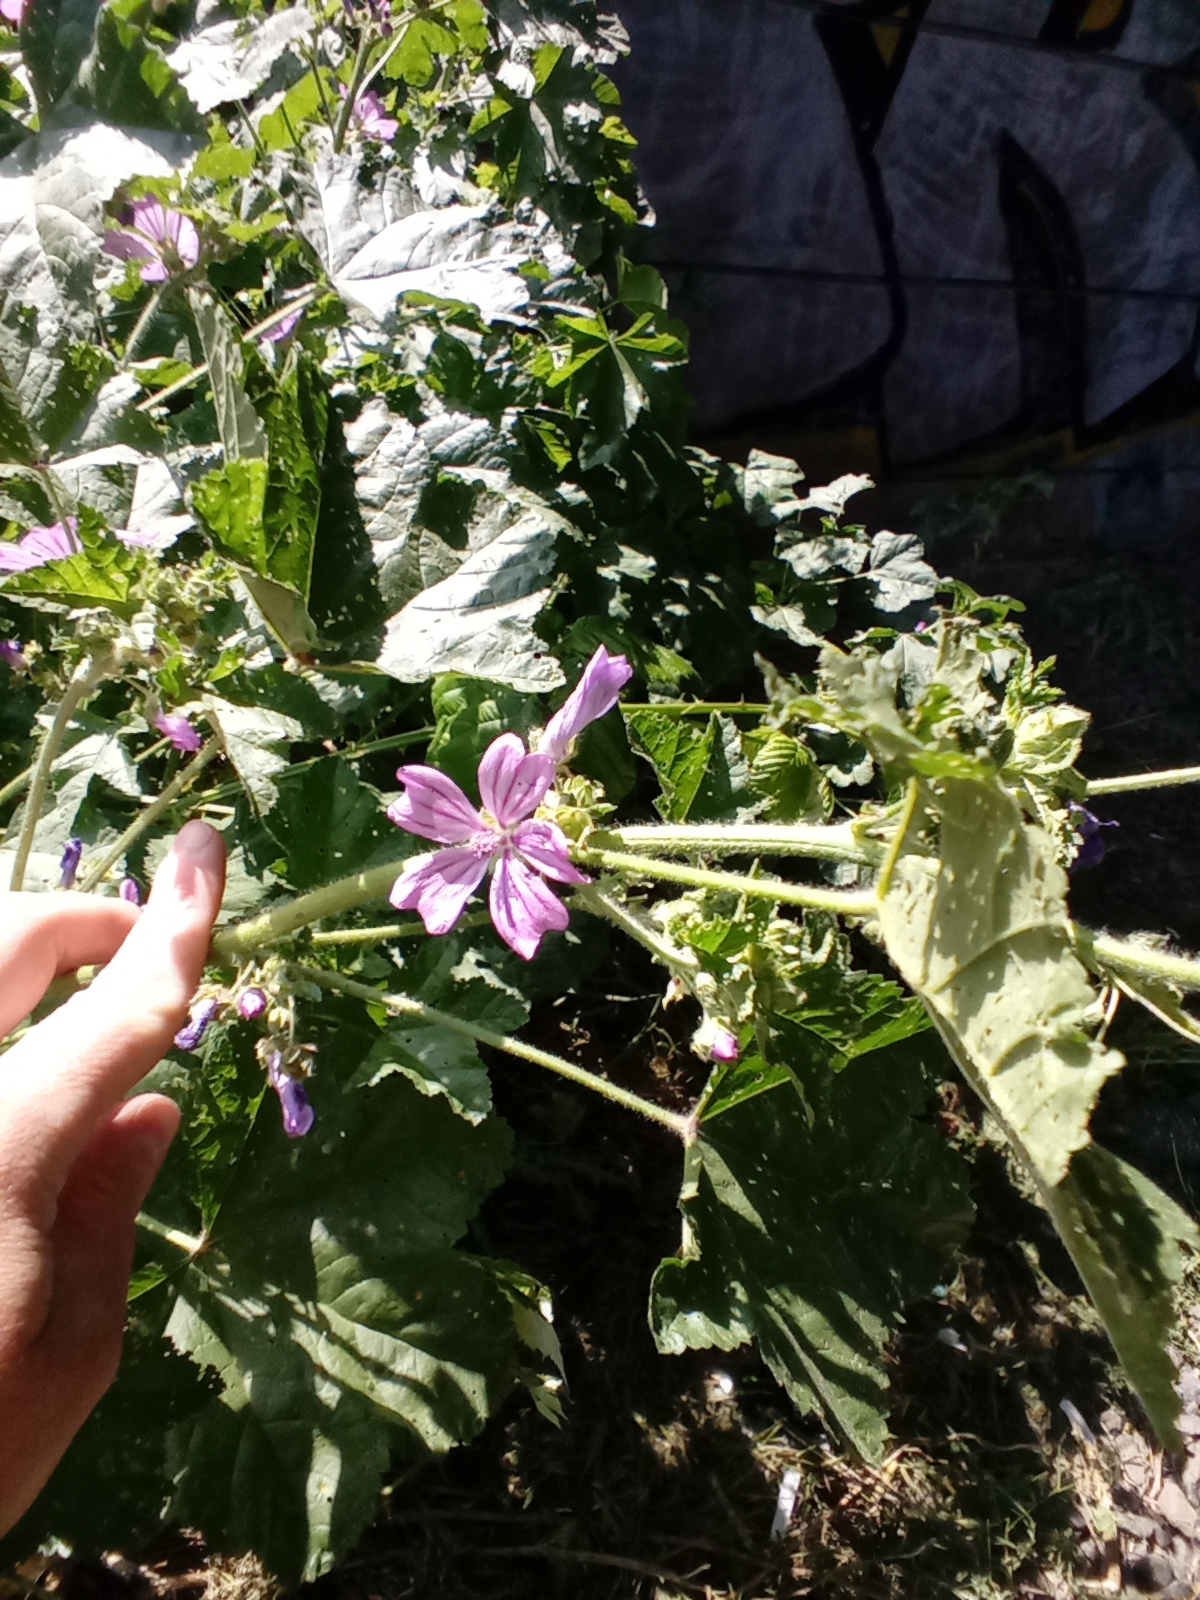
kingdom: Plantae
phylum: Tracheophyta
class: Magnoliopsida
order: Malvales
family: Malvaceae
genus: Malva
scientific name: Malva sylvestris
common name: Common mallow
